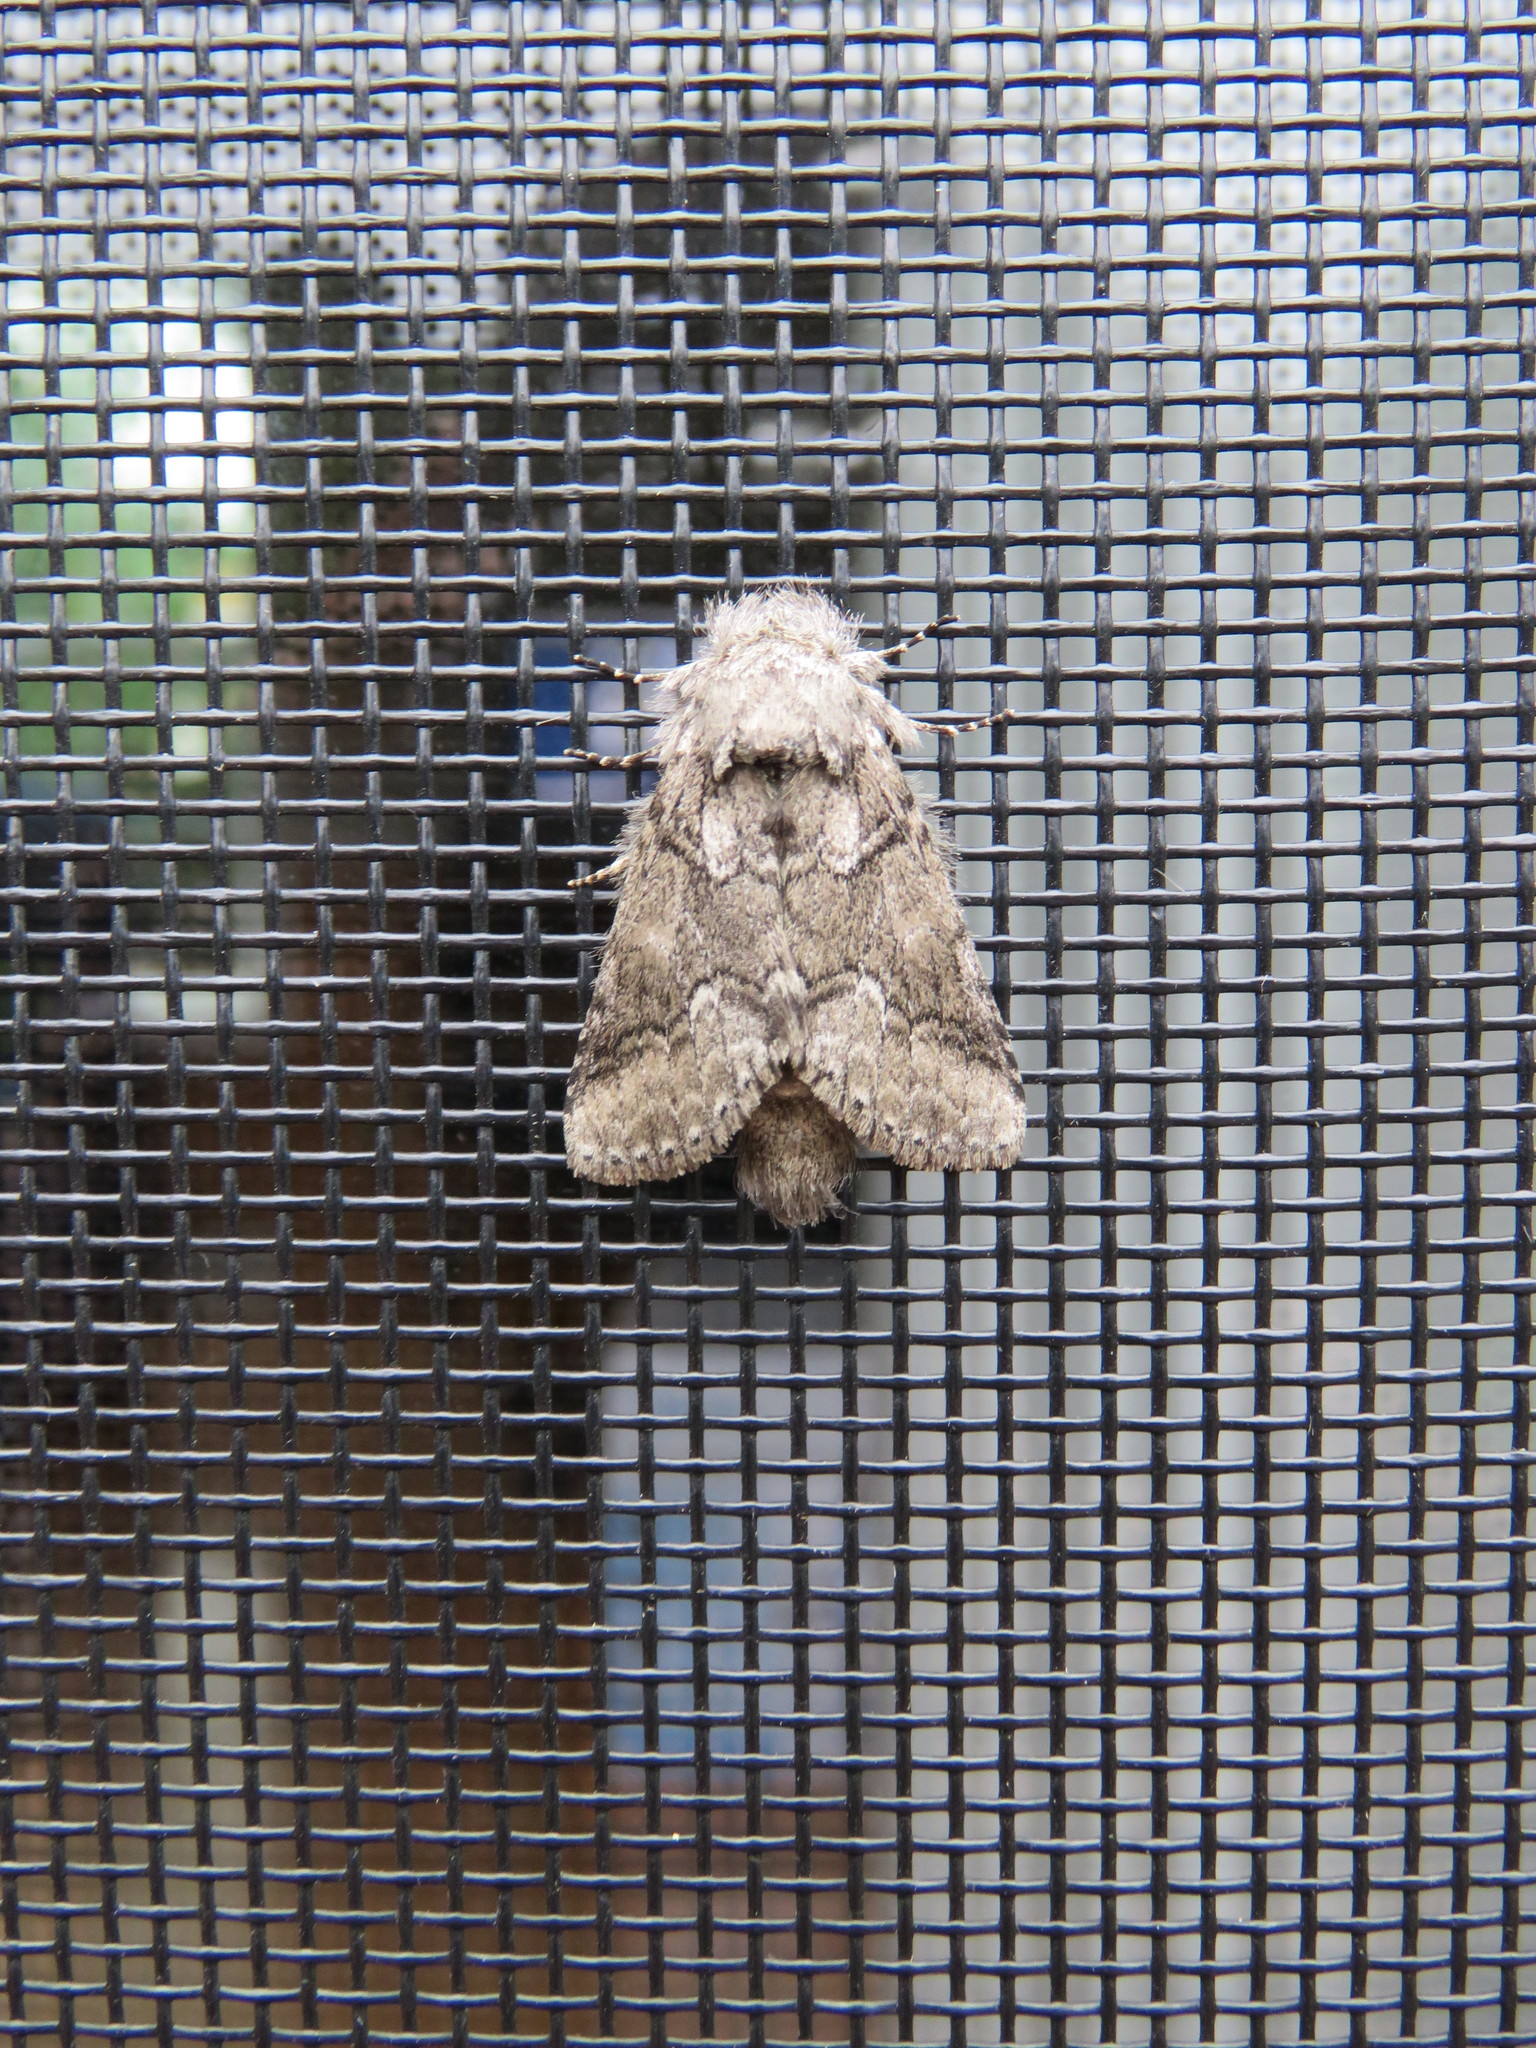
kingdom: Animalia
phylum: Arthropoda
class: Insecta
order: Lepidoptera
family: Notodontidae
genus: Lochmaeus
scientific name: Lochmaeus bilineata
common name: Double-lined prominent
